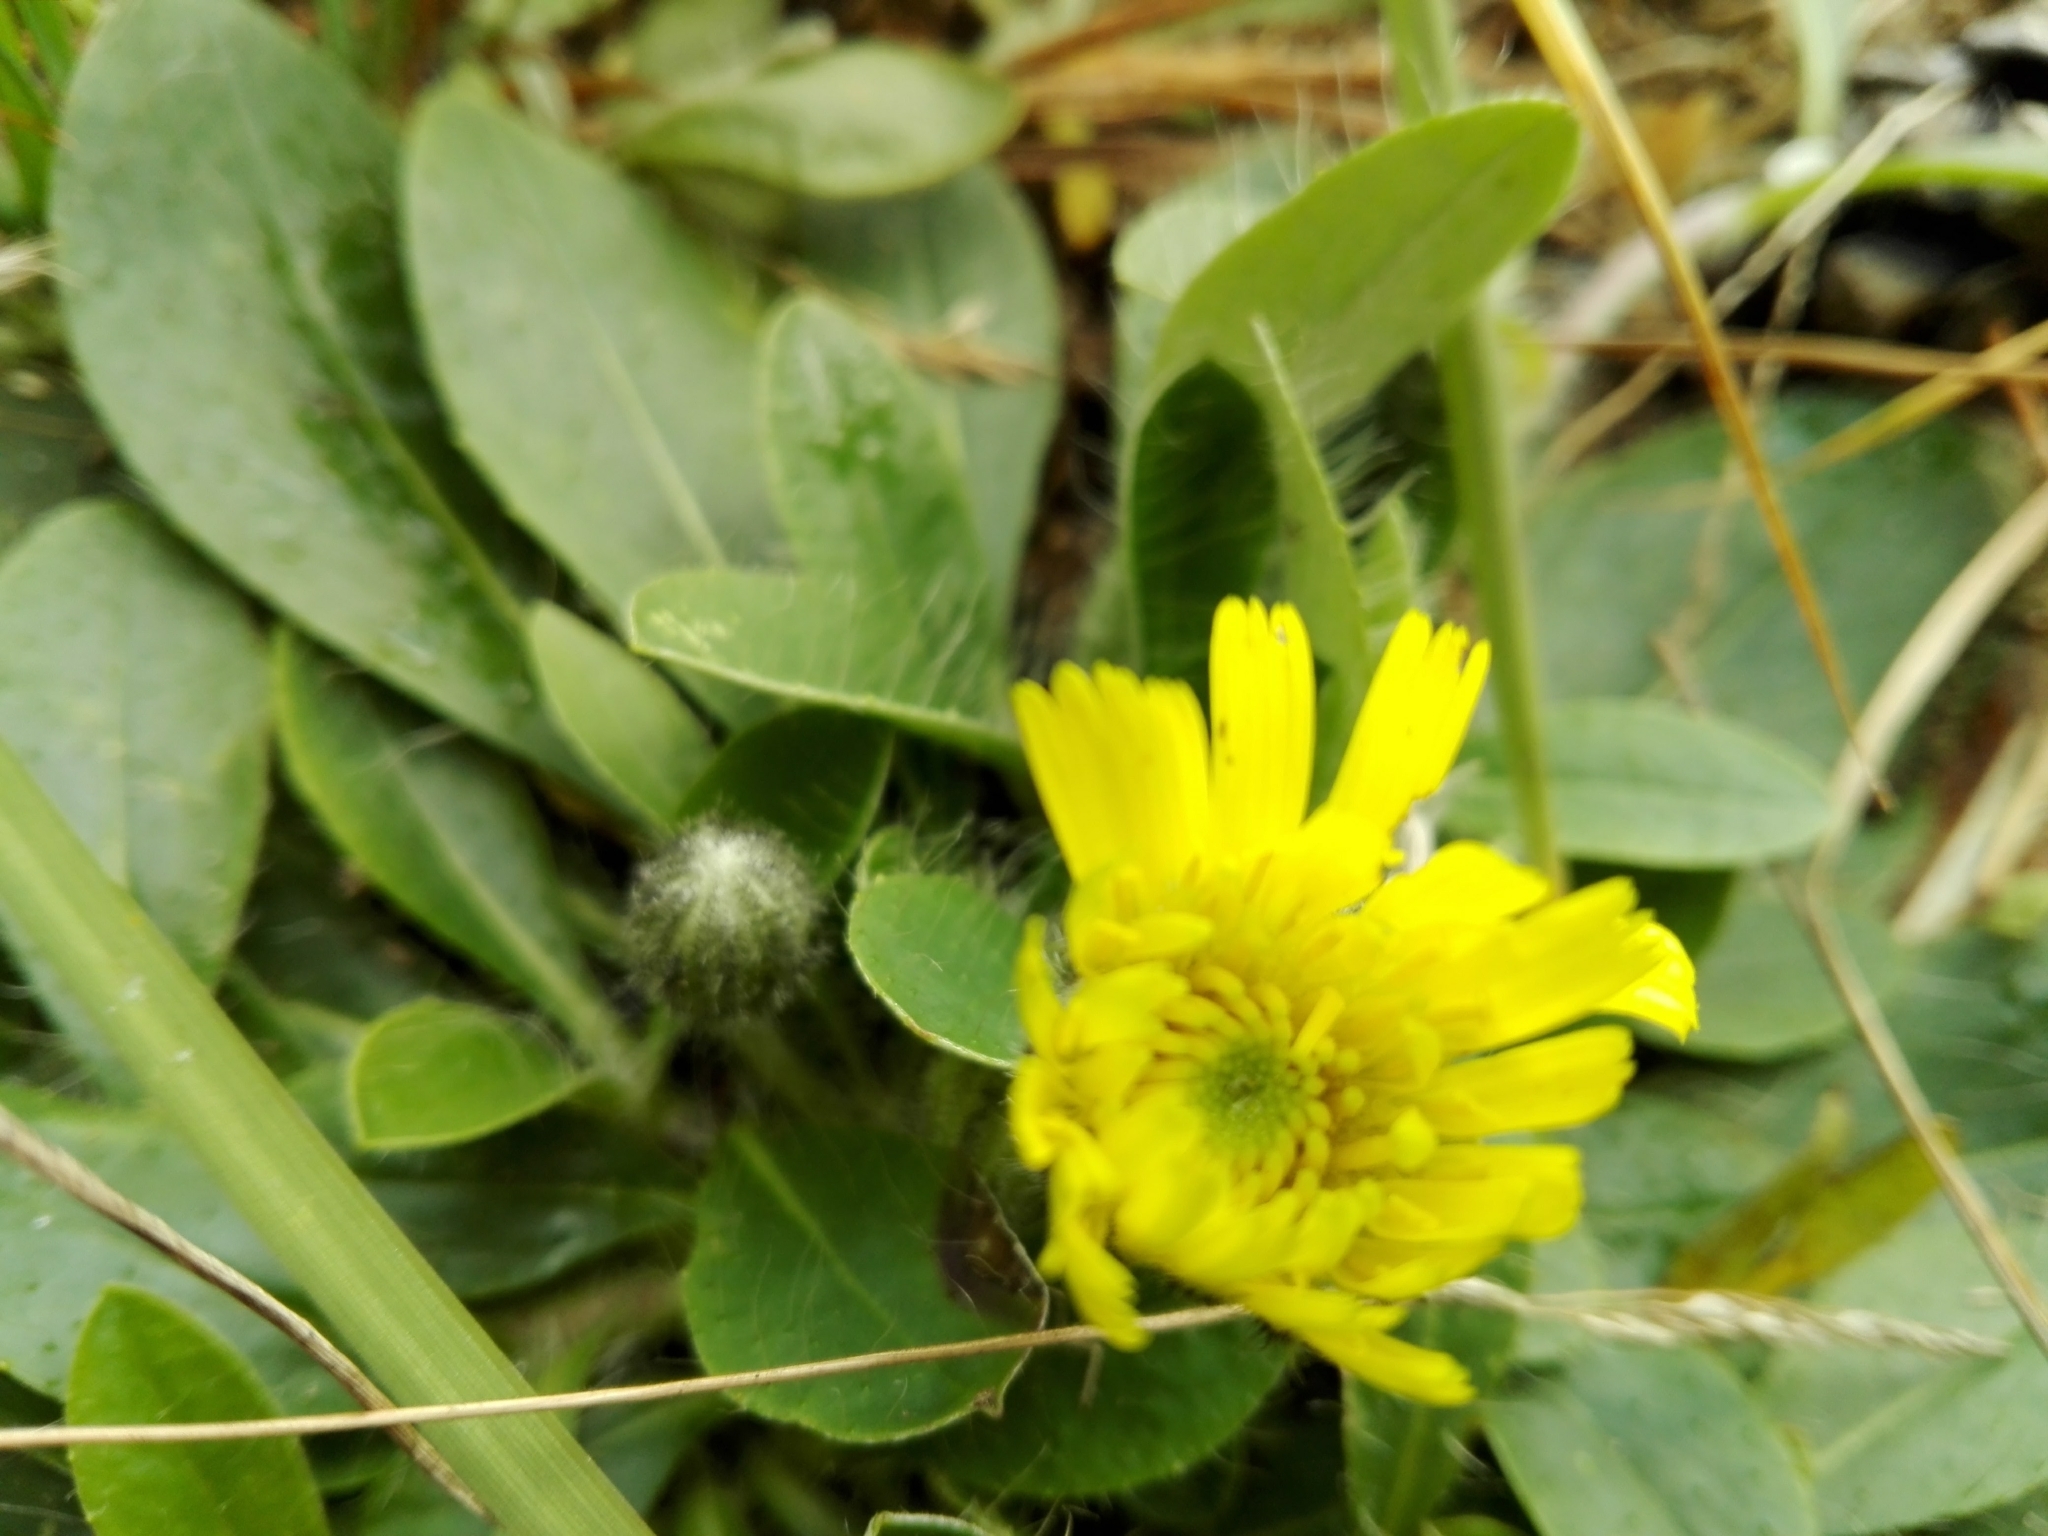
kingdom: Plantae
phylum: Tracheophyta
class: Magnoliopsida
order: Asterales
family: Asteraceae
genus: Pilosella
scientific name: Pilosella officinarum
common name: Mouse-ear hawkweed
